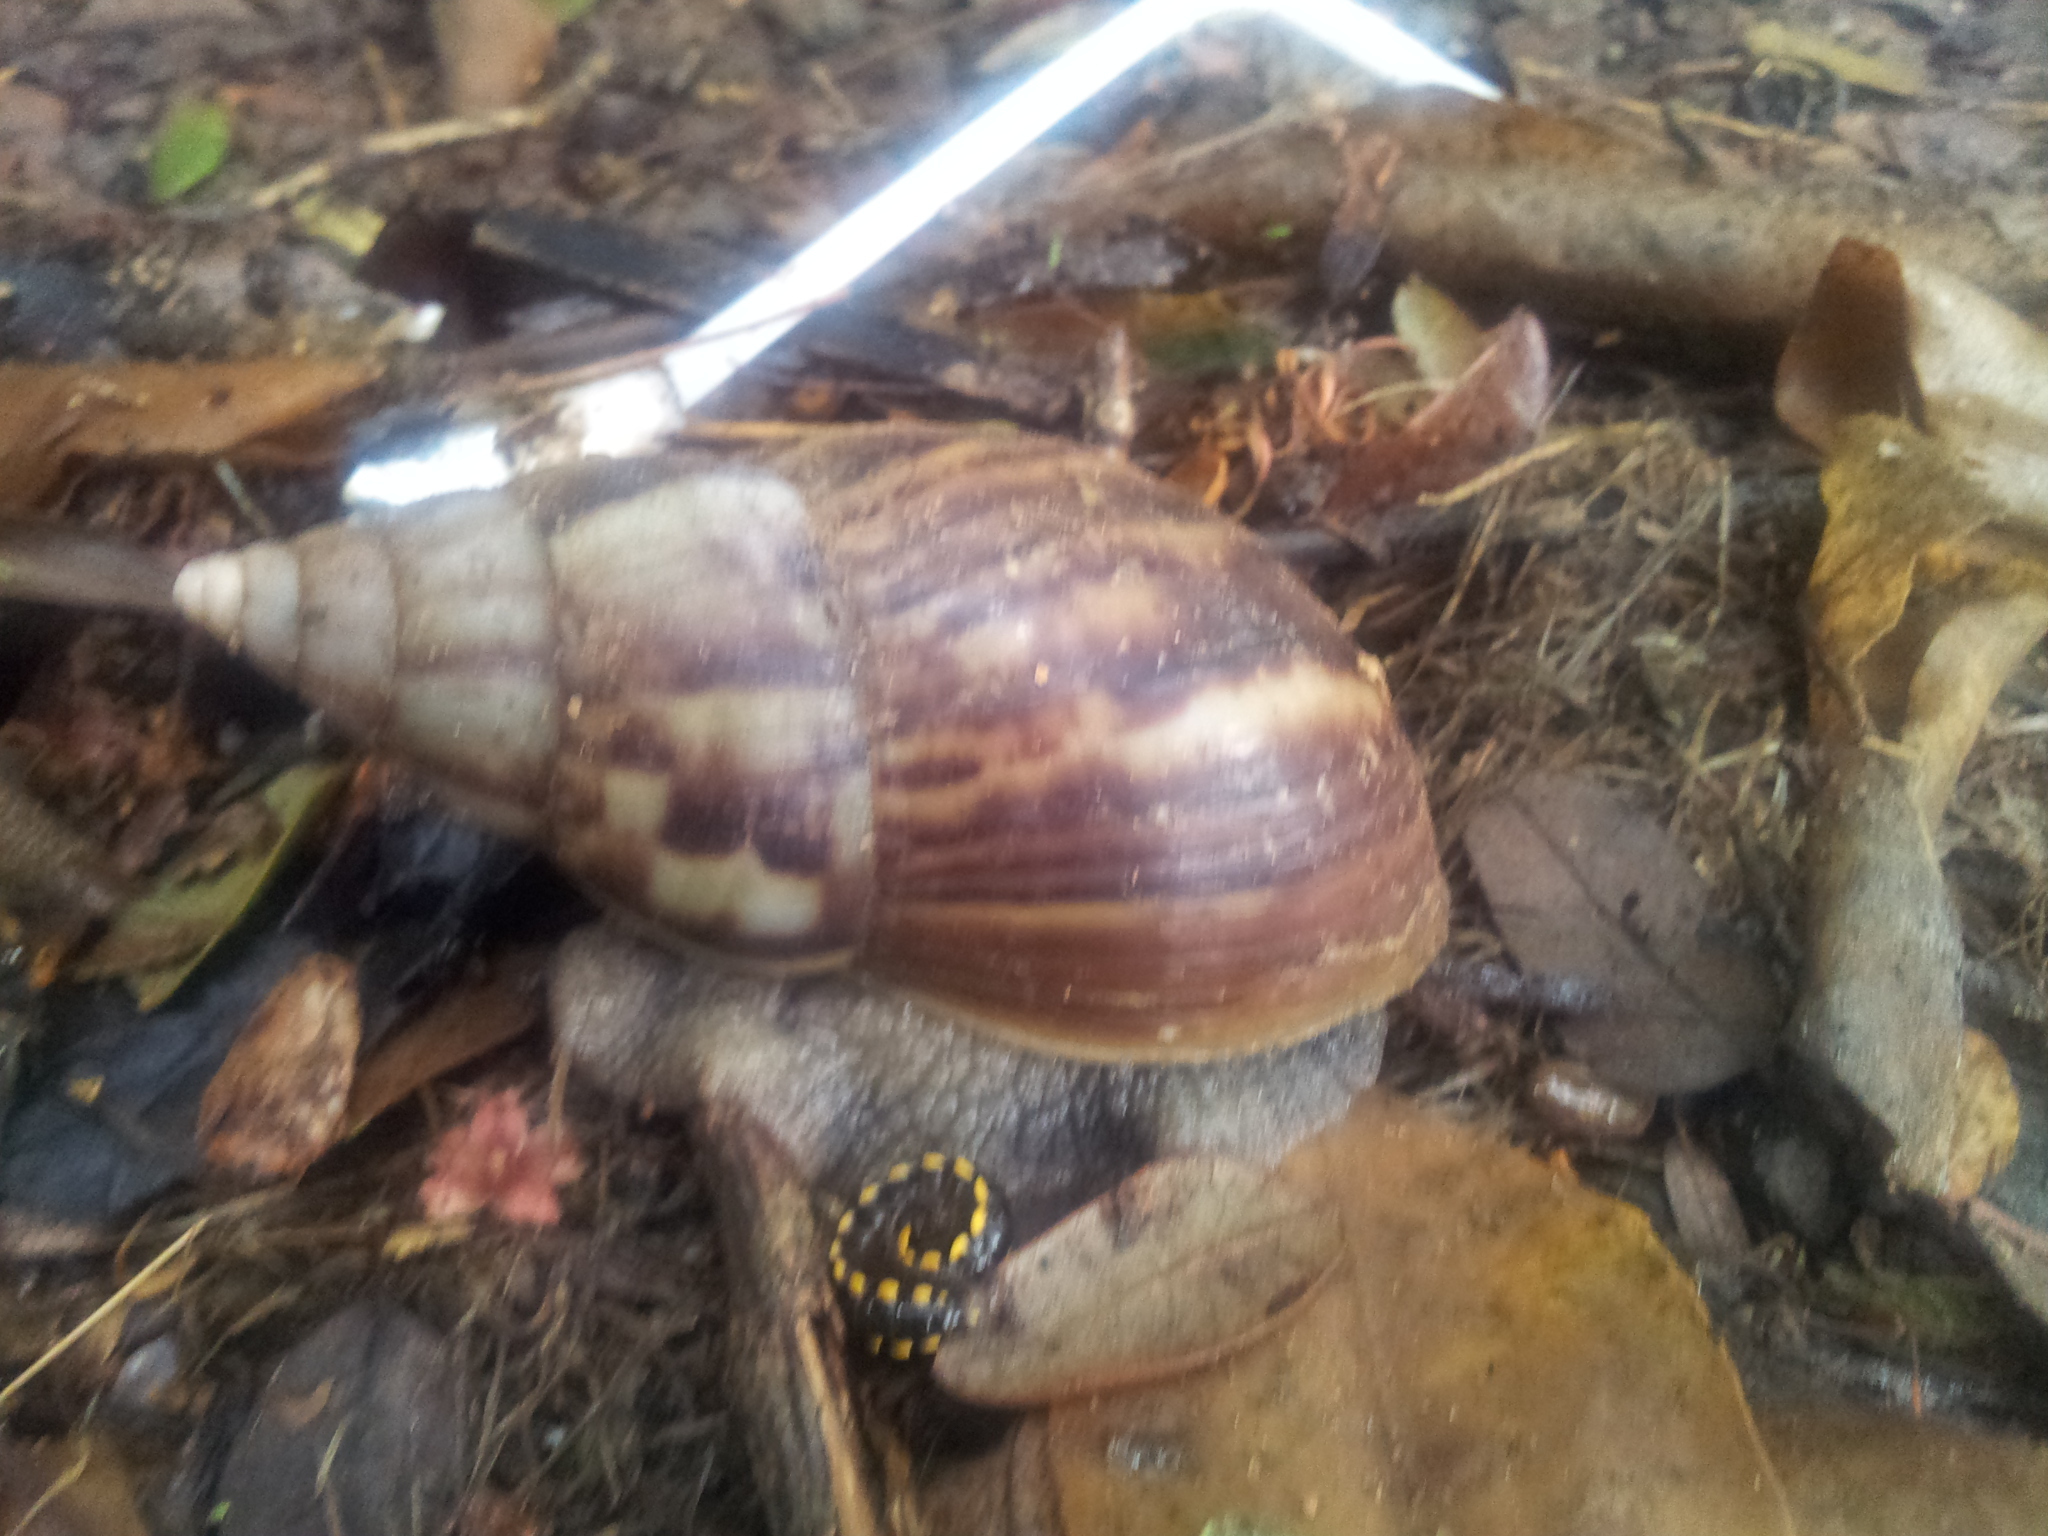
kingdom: Animalia
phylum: Mollusca
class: Gastropoda
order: Stylommatophora
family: Achatinidae
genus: Lissachatina
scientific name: Lissachatina fulica
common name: Giant african snail
